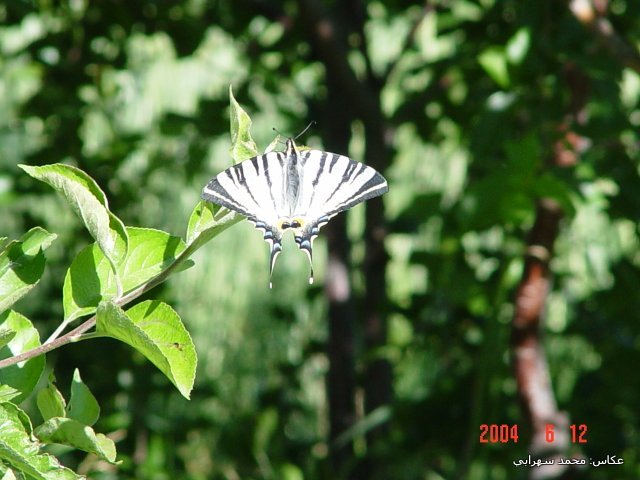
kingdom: Animalia
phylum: Arthropoda
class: Insecta
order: Lepidoptera
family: Papilionidae
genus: Iphiclides
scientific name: Iphiclides podalirius
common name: Scarce swallowtail
